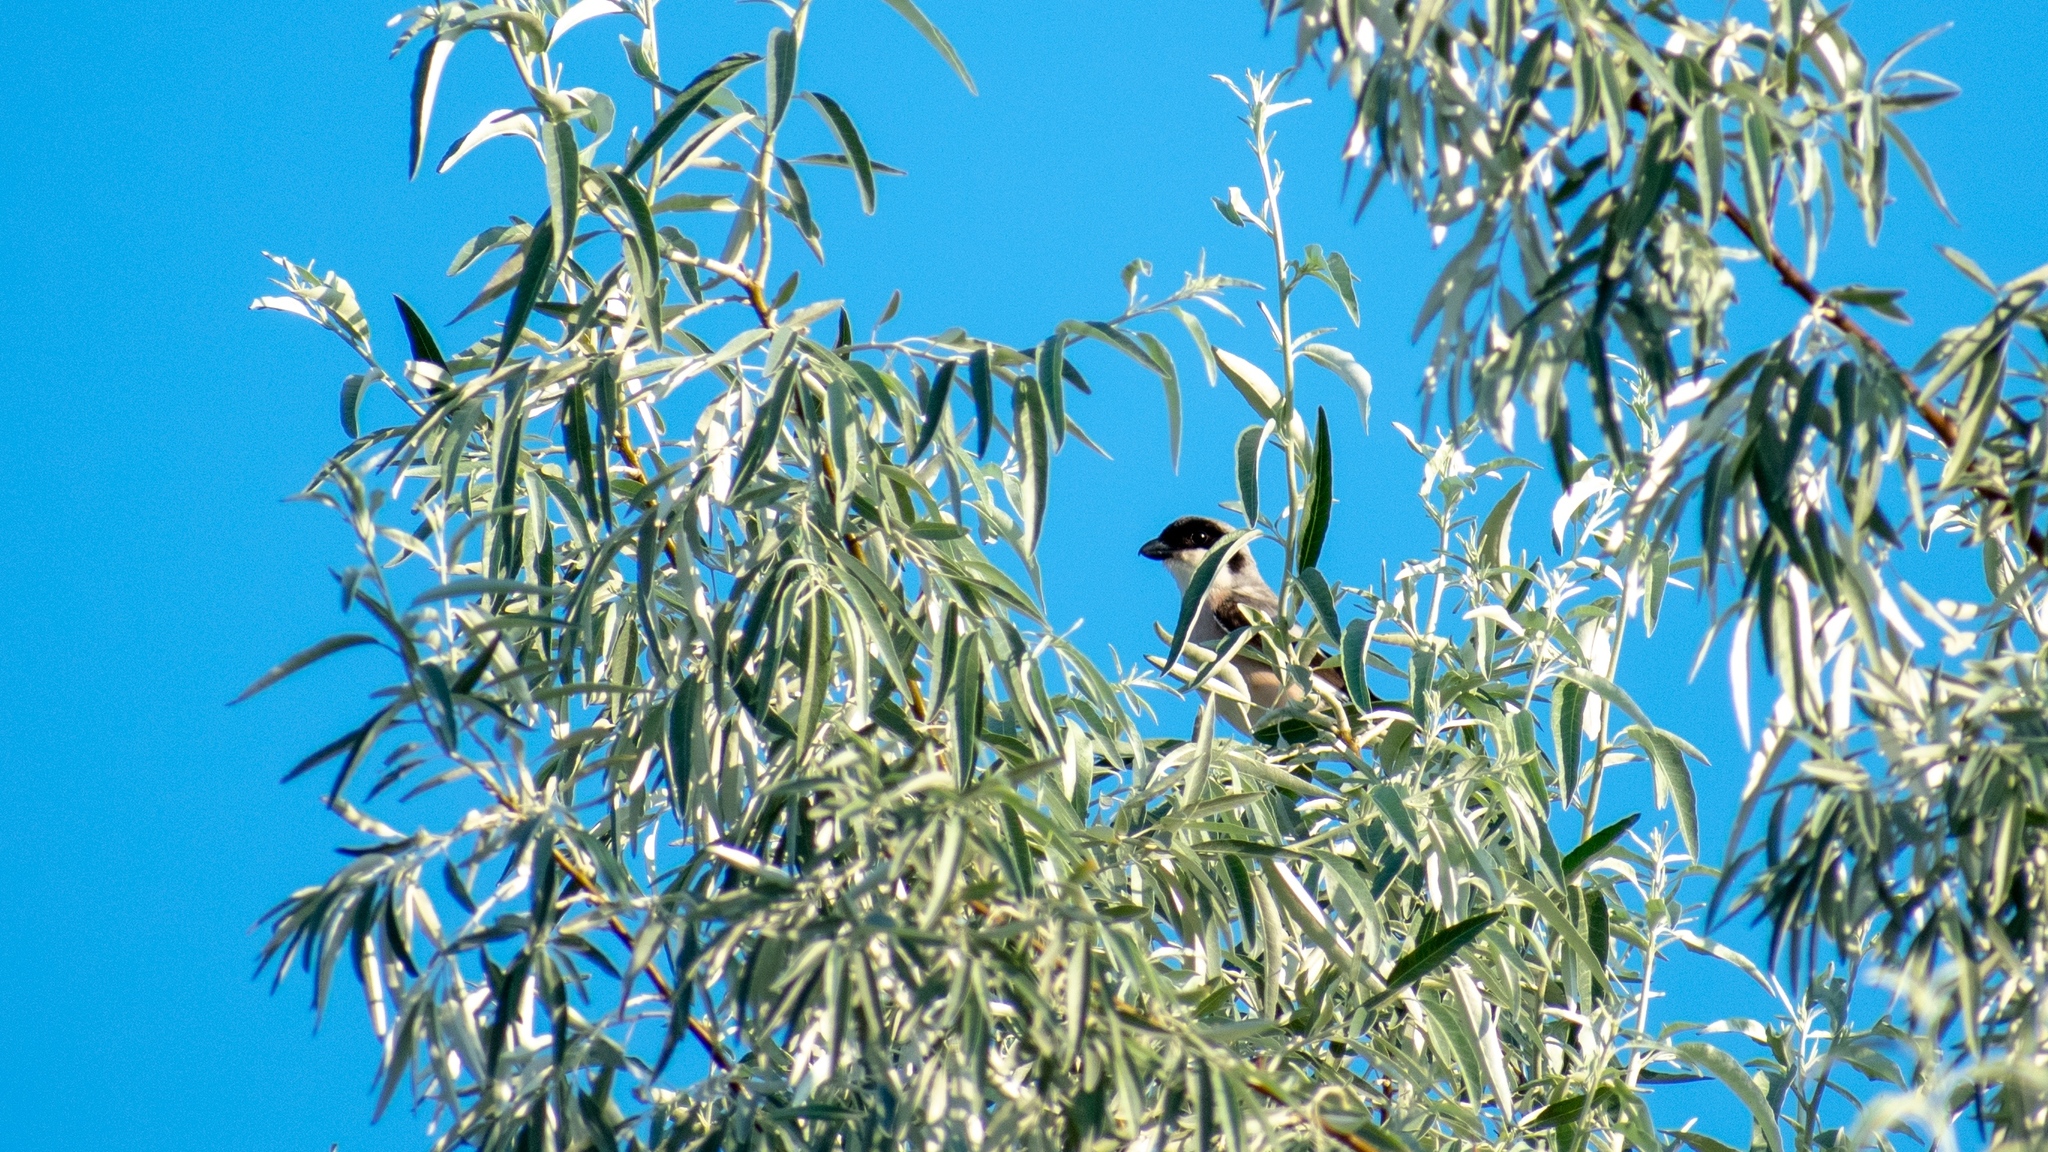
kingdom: Animalia
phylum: Chordata
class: Aves
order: Passeriformes
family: Laniidae
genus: Lanius
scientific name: Lanius minor
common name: Lesser grey shrike
